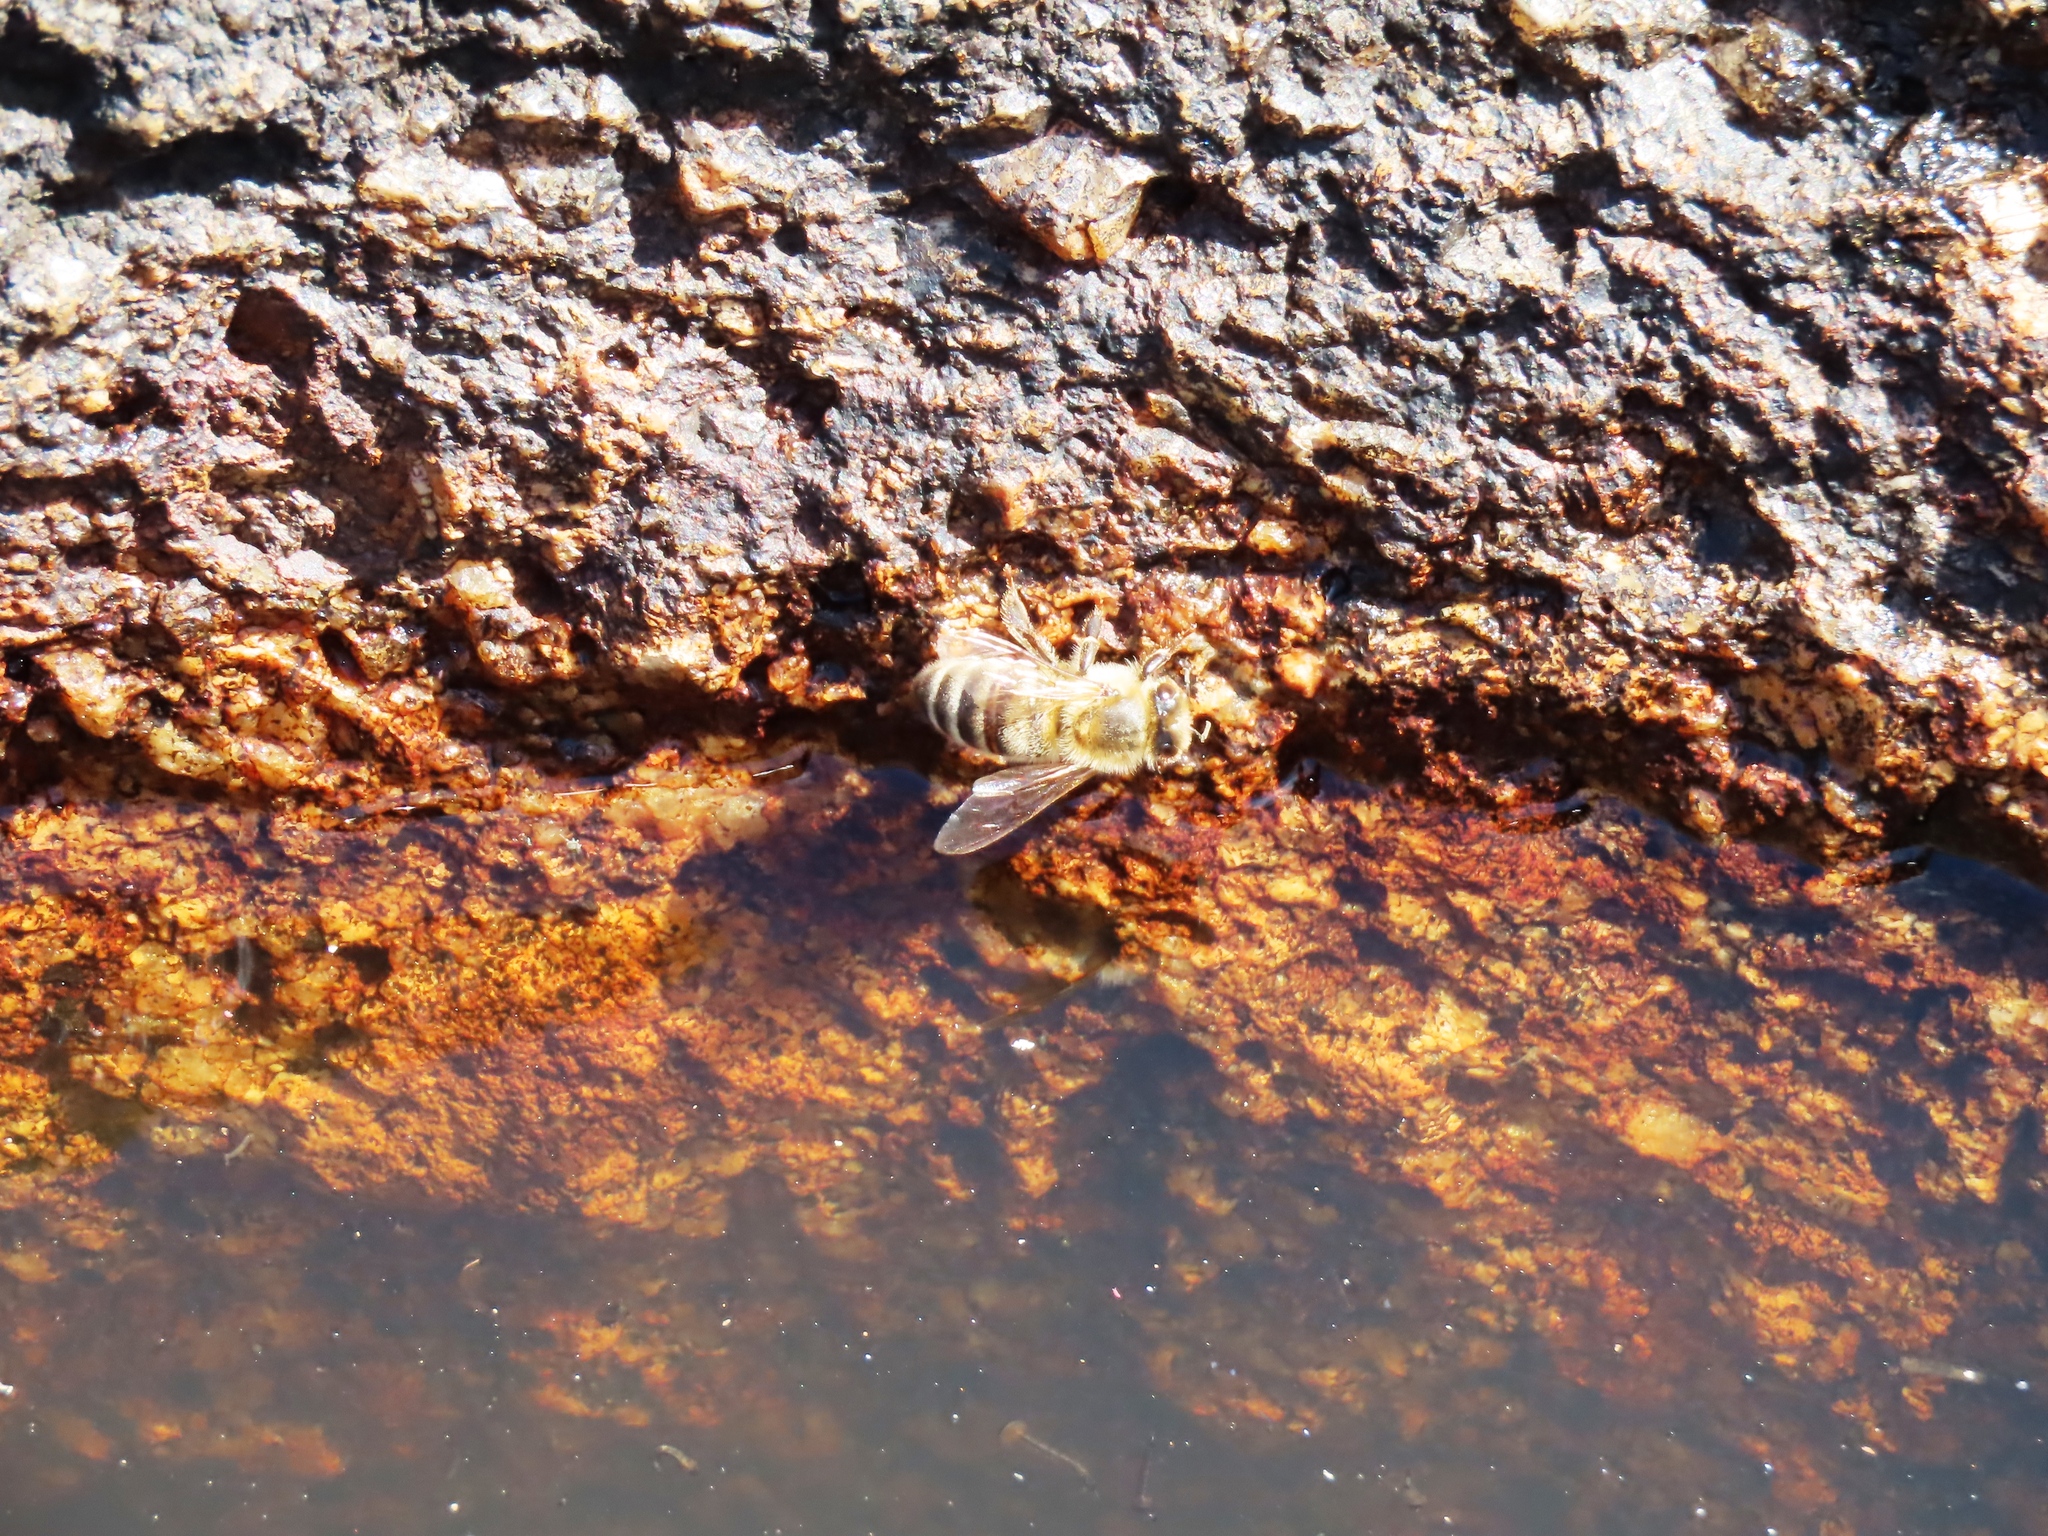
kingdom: Animalia
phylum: Arthropoda
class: Insecta
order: Hymenoptera
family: Apidae
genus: Apis
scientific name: Apis mellifera
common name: Honey bee
